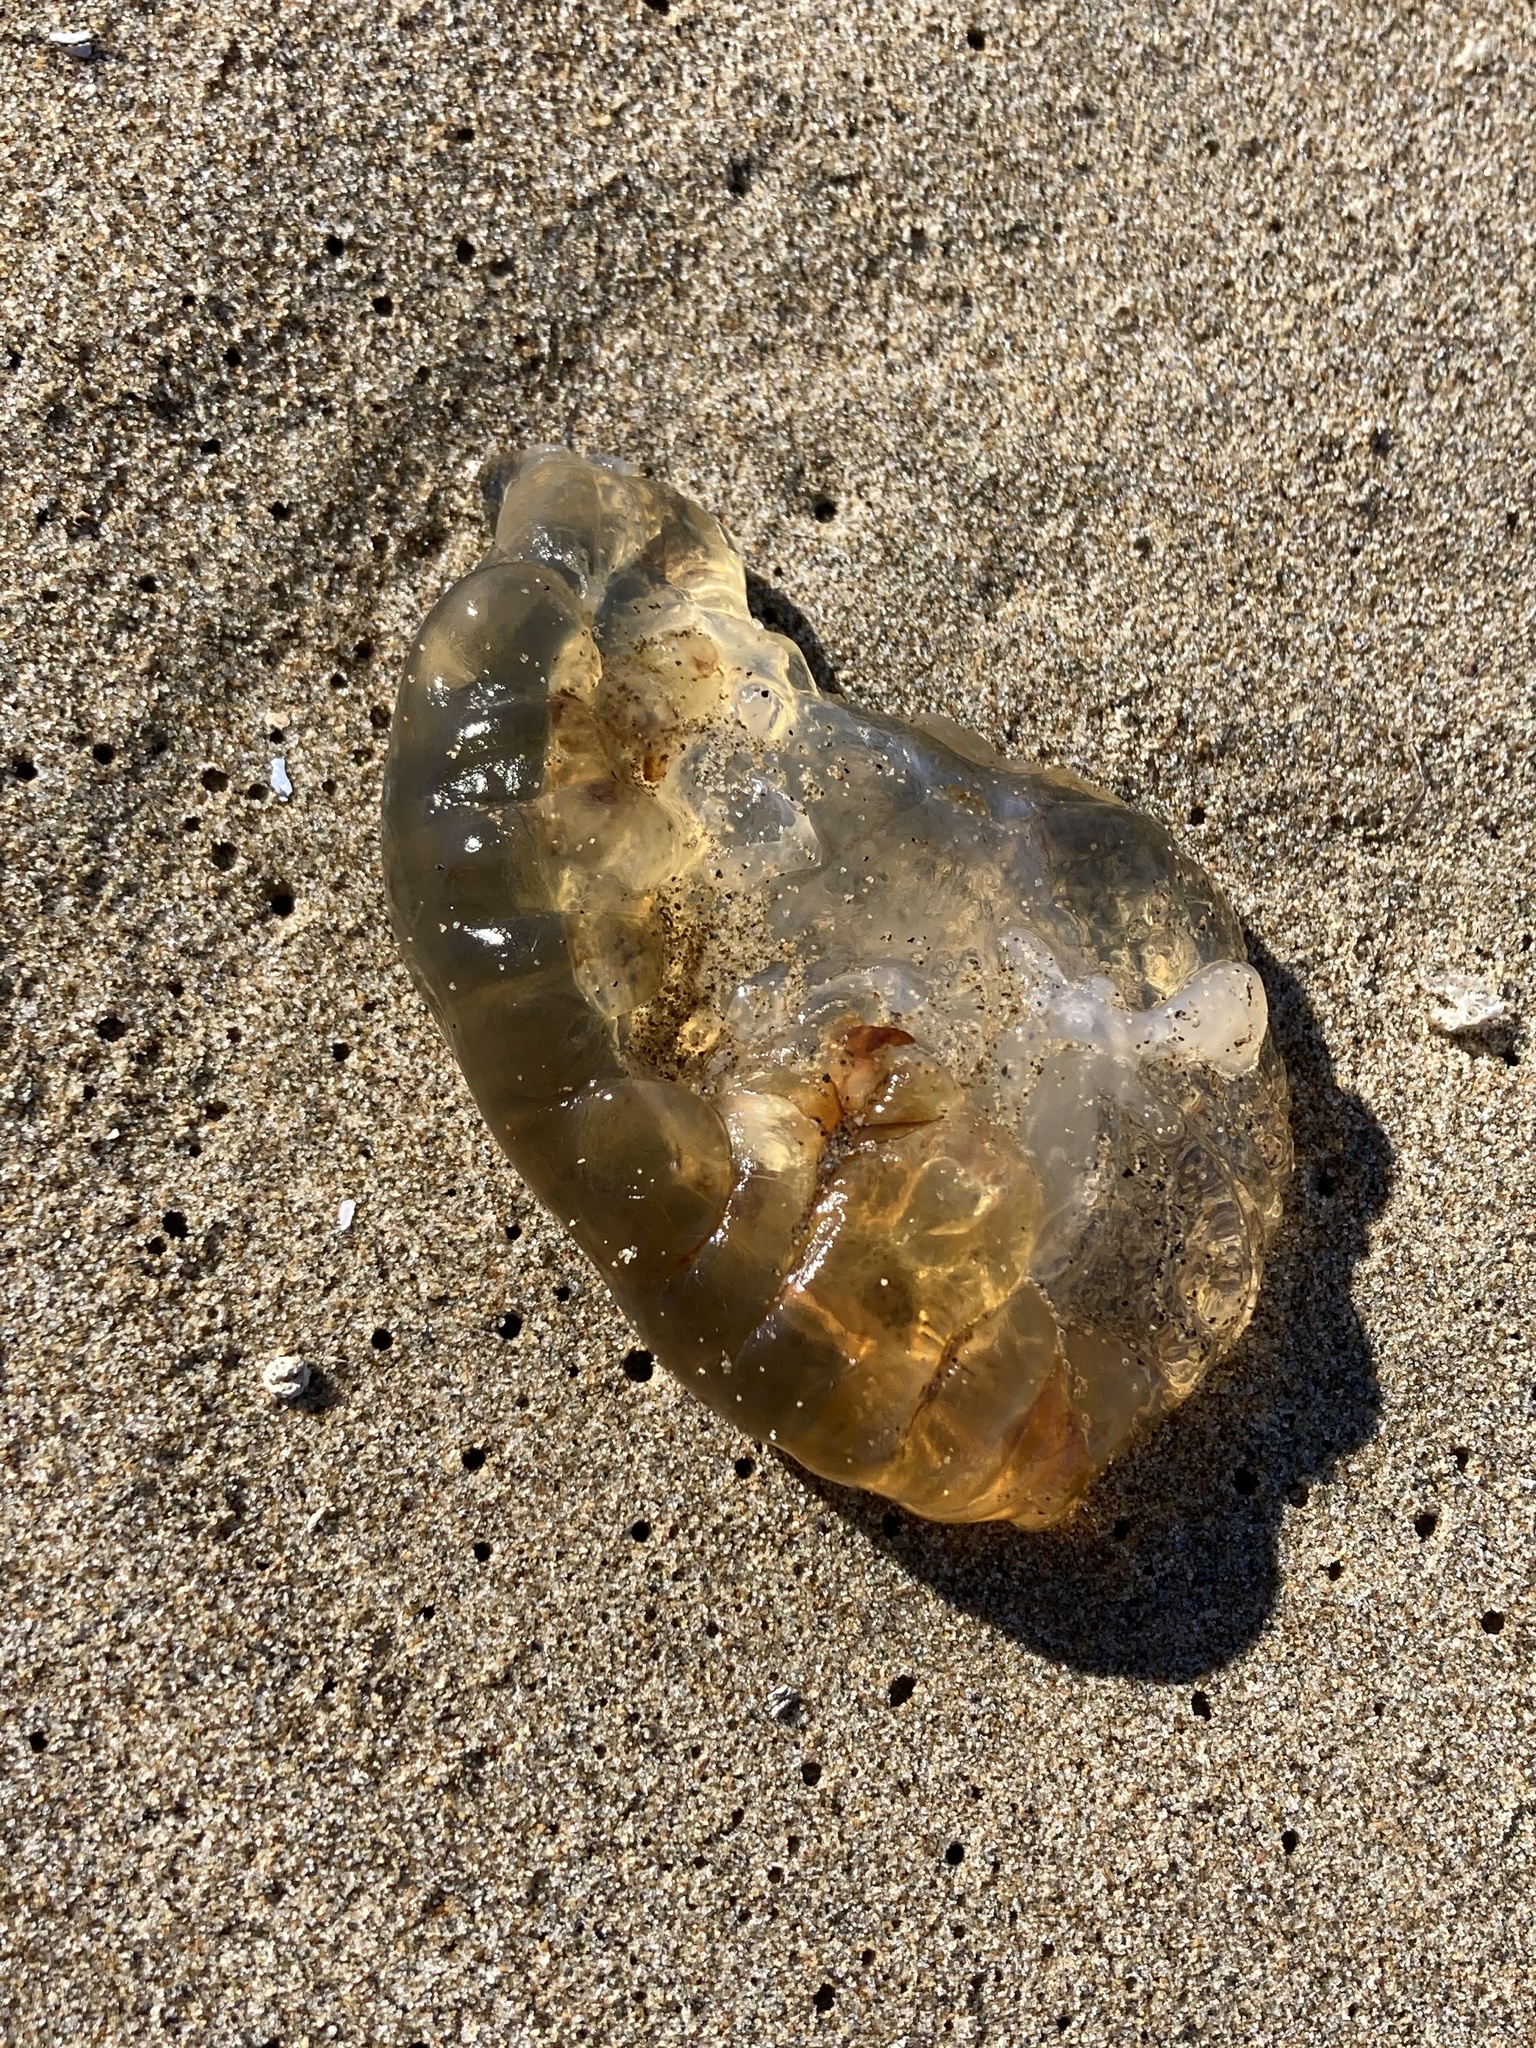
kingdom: Animalia
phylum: Cnidaria
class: Scyphozoa
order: Semaeostomeae
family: Pelagiidae
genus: Chrysaora
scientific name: Chrysaora fuscescens
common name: Sea nettle
